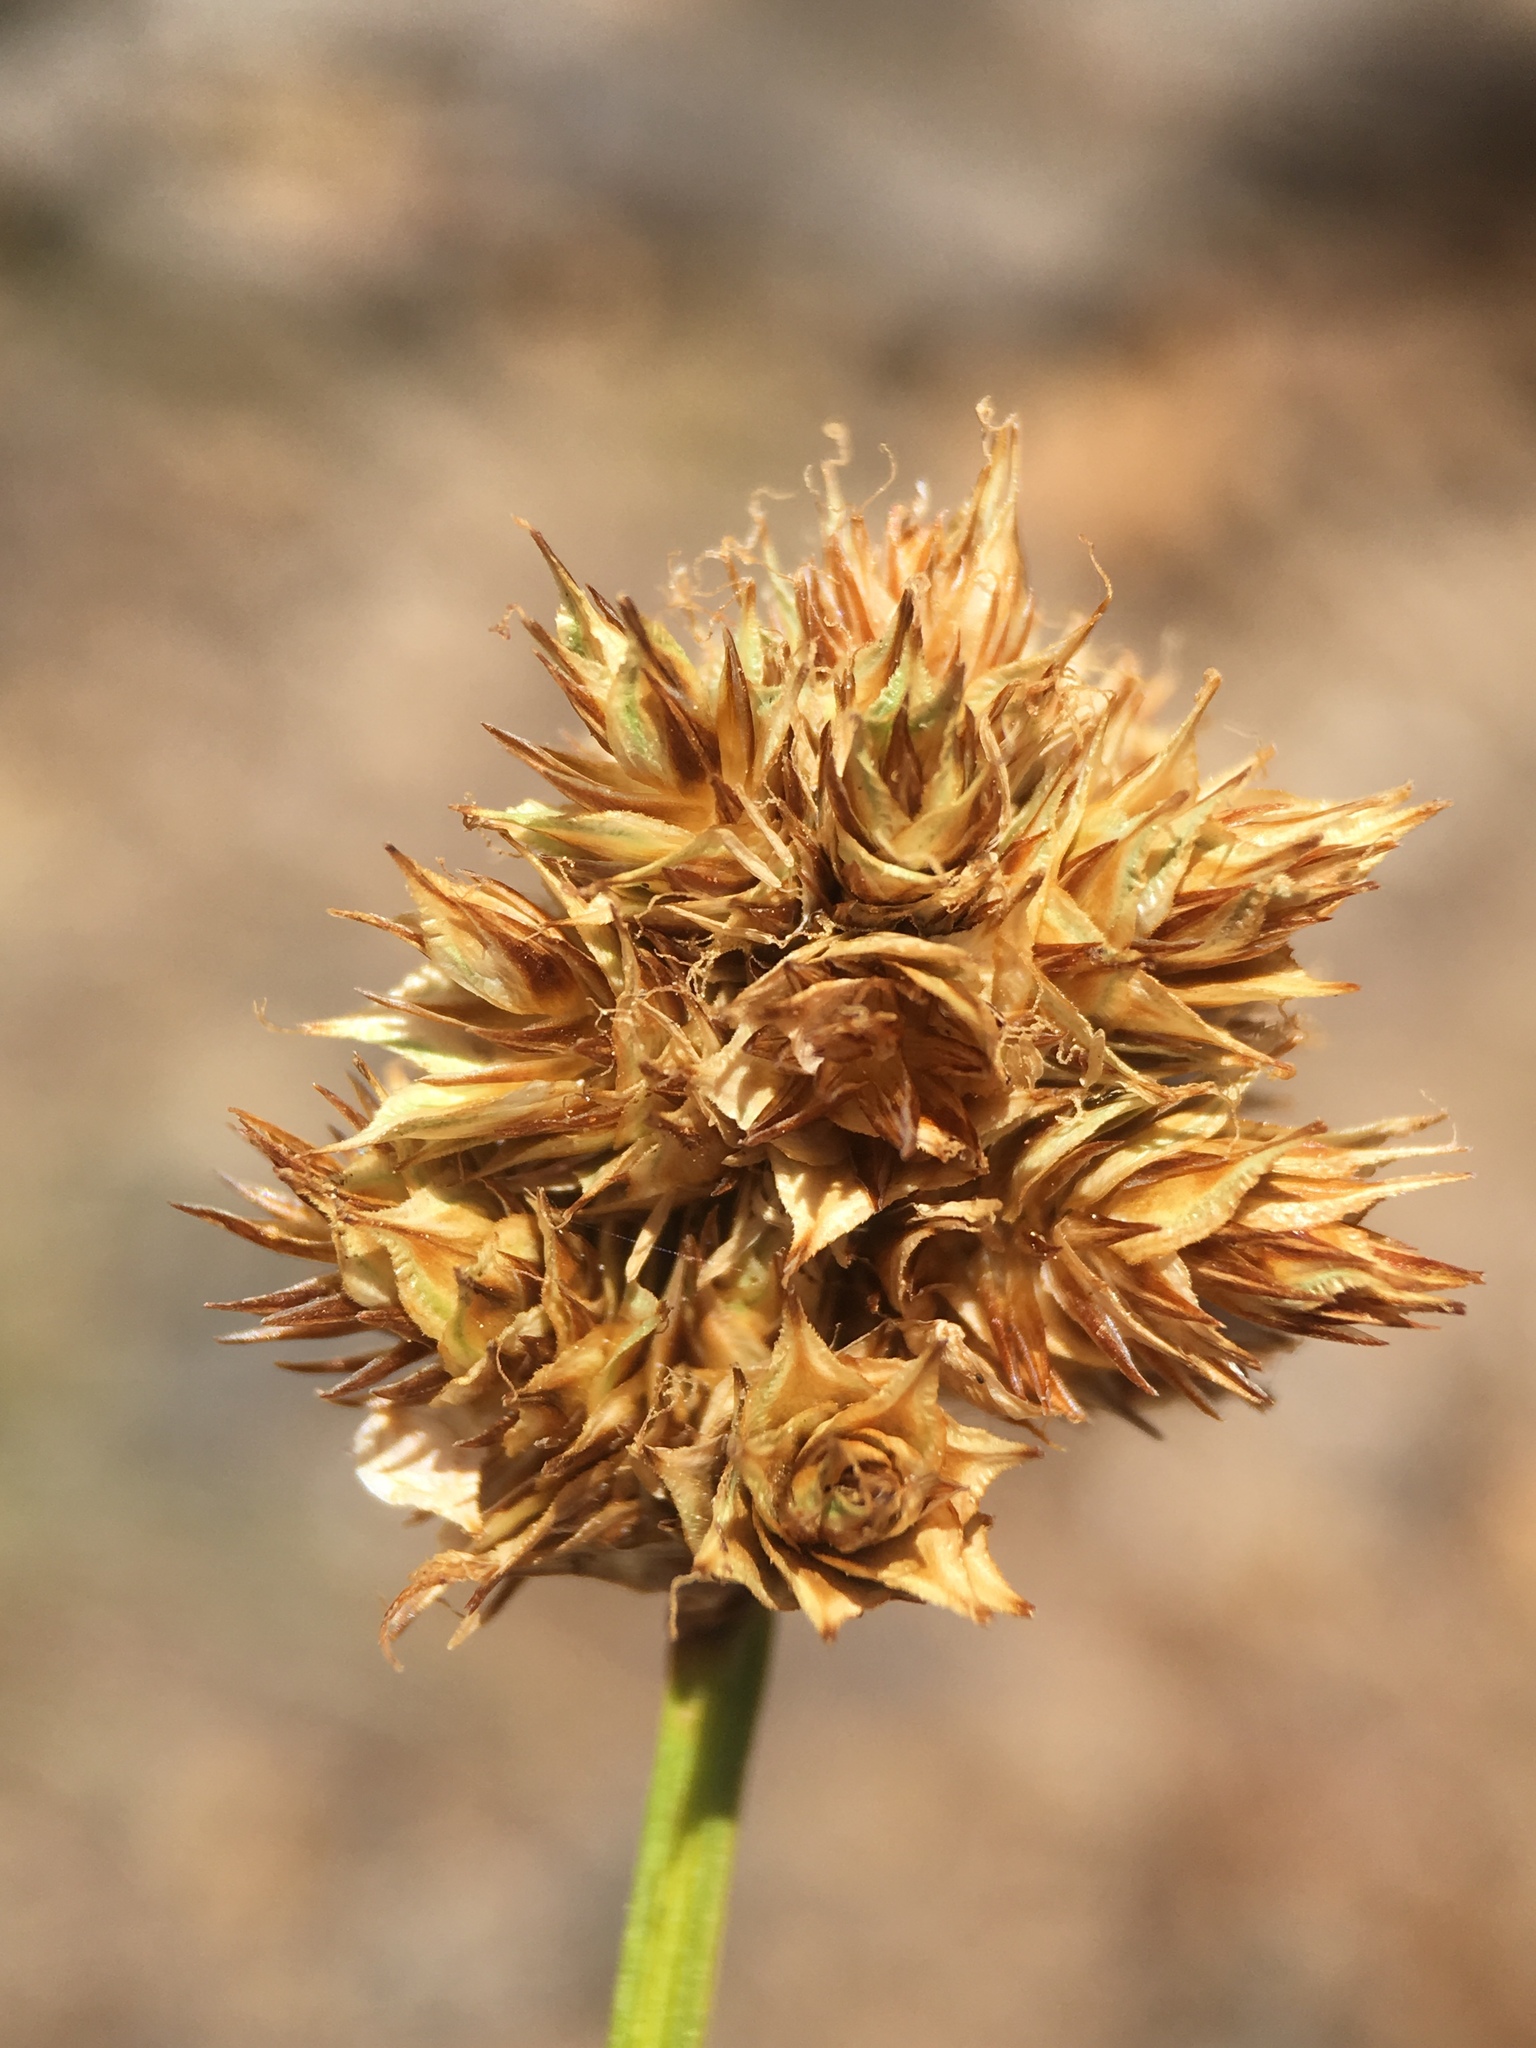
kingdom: Plantae
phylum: Tracheophyta
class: Liliopsida
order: Poales
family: Cyperaceae
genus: Carex
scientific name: Carex straminiformis
